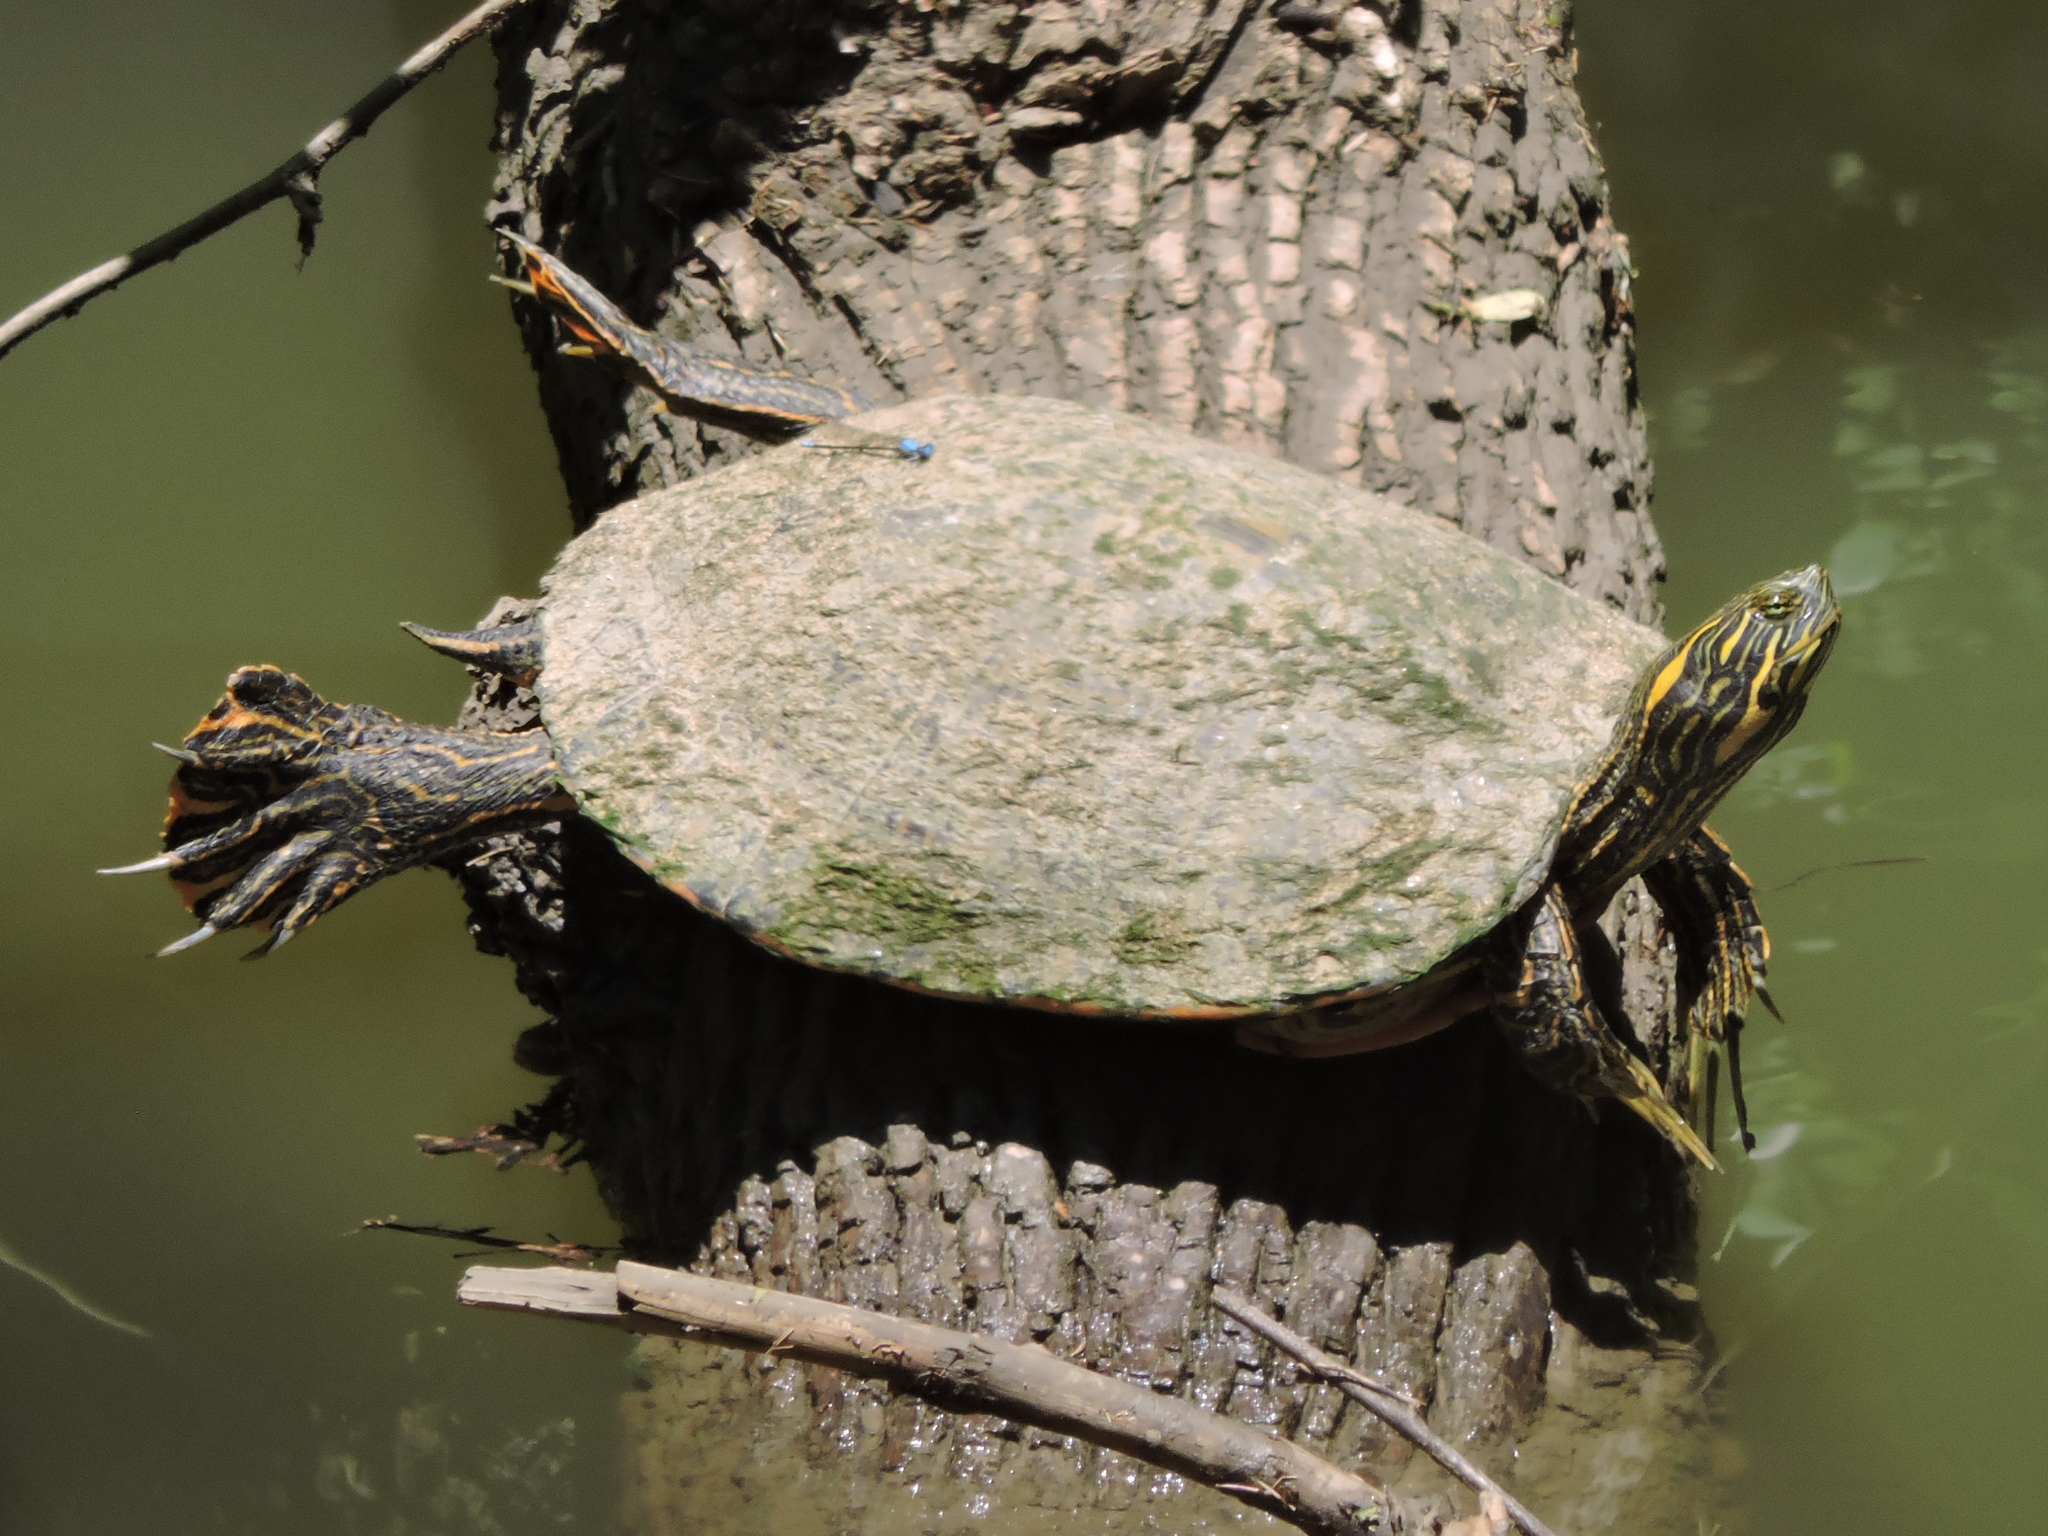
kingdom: Animalia
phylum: Chordata
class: Testudines
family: Emydidae
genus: Pseudemys
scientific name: Pseudemys concinna
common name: Eastern river cooter
